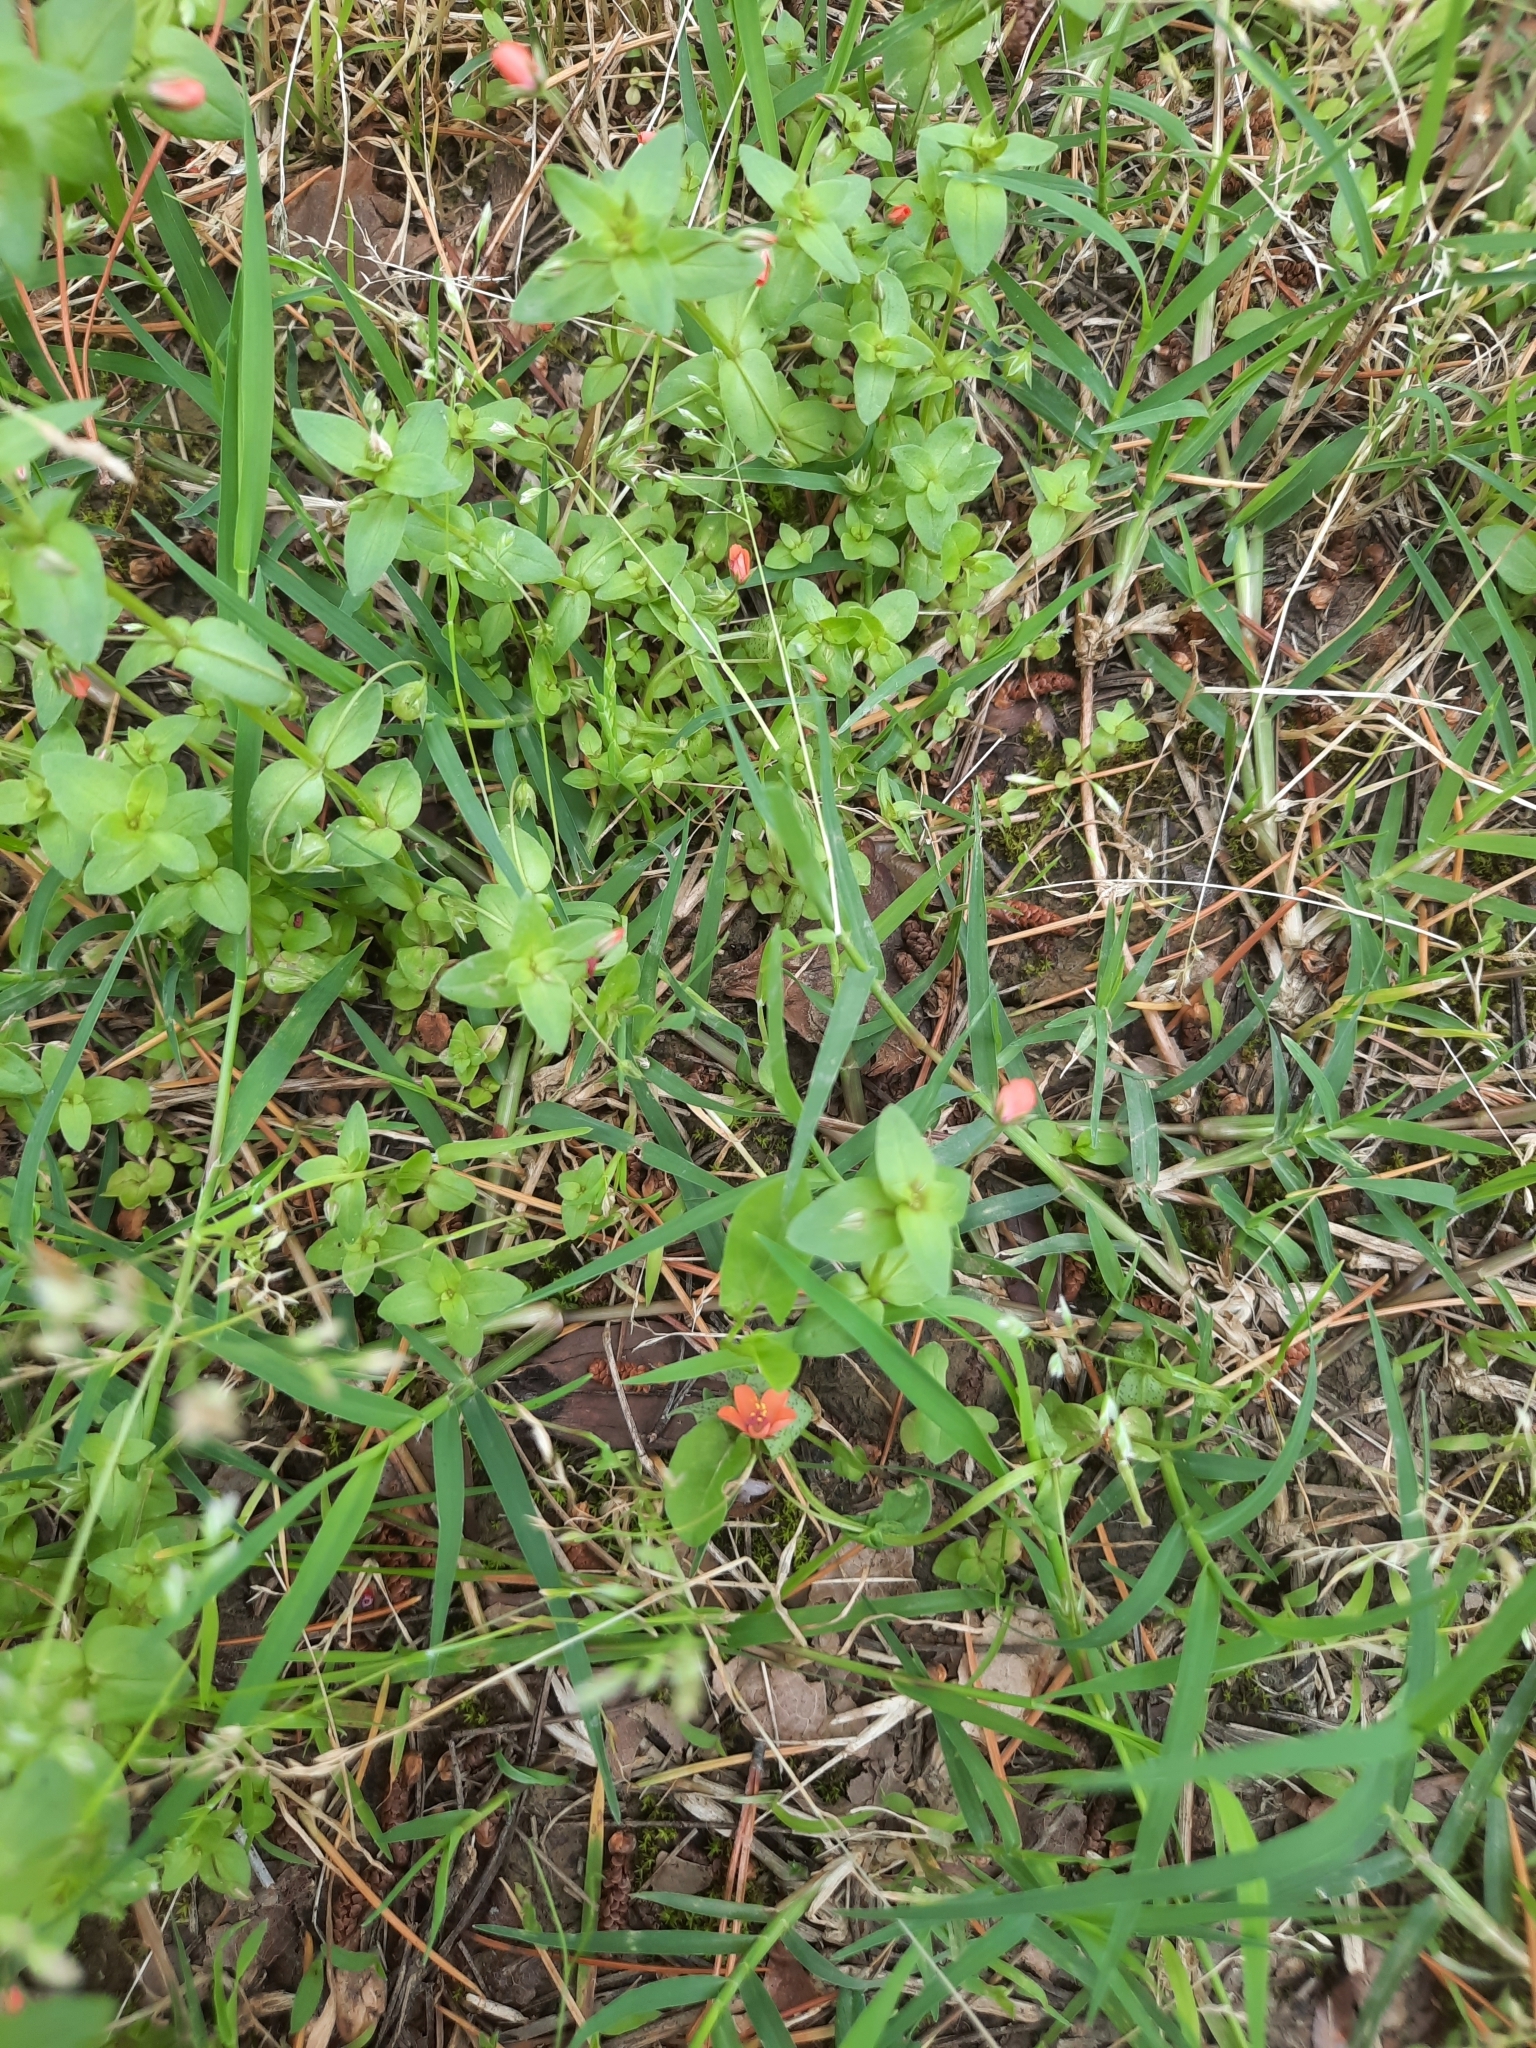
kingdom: Plantae
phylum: Tracheophyta
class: Magnoliopsida
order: Ericales
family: Primulaceae
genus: Lysimachia
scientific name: Lysimachia arvensis
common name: Scarlet pimpernel
